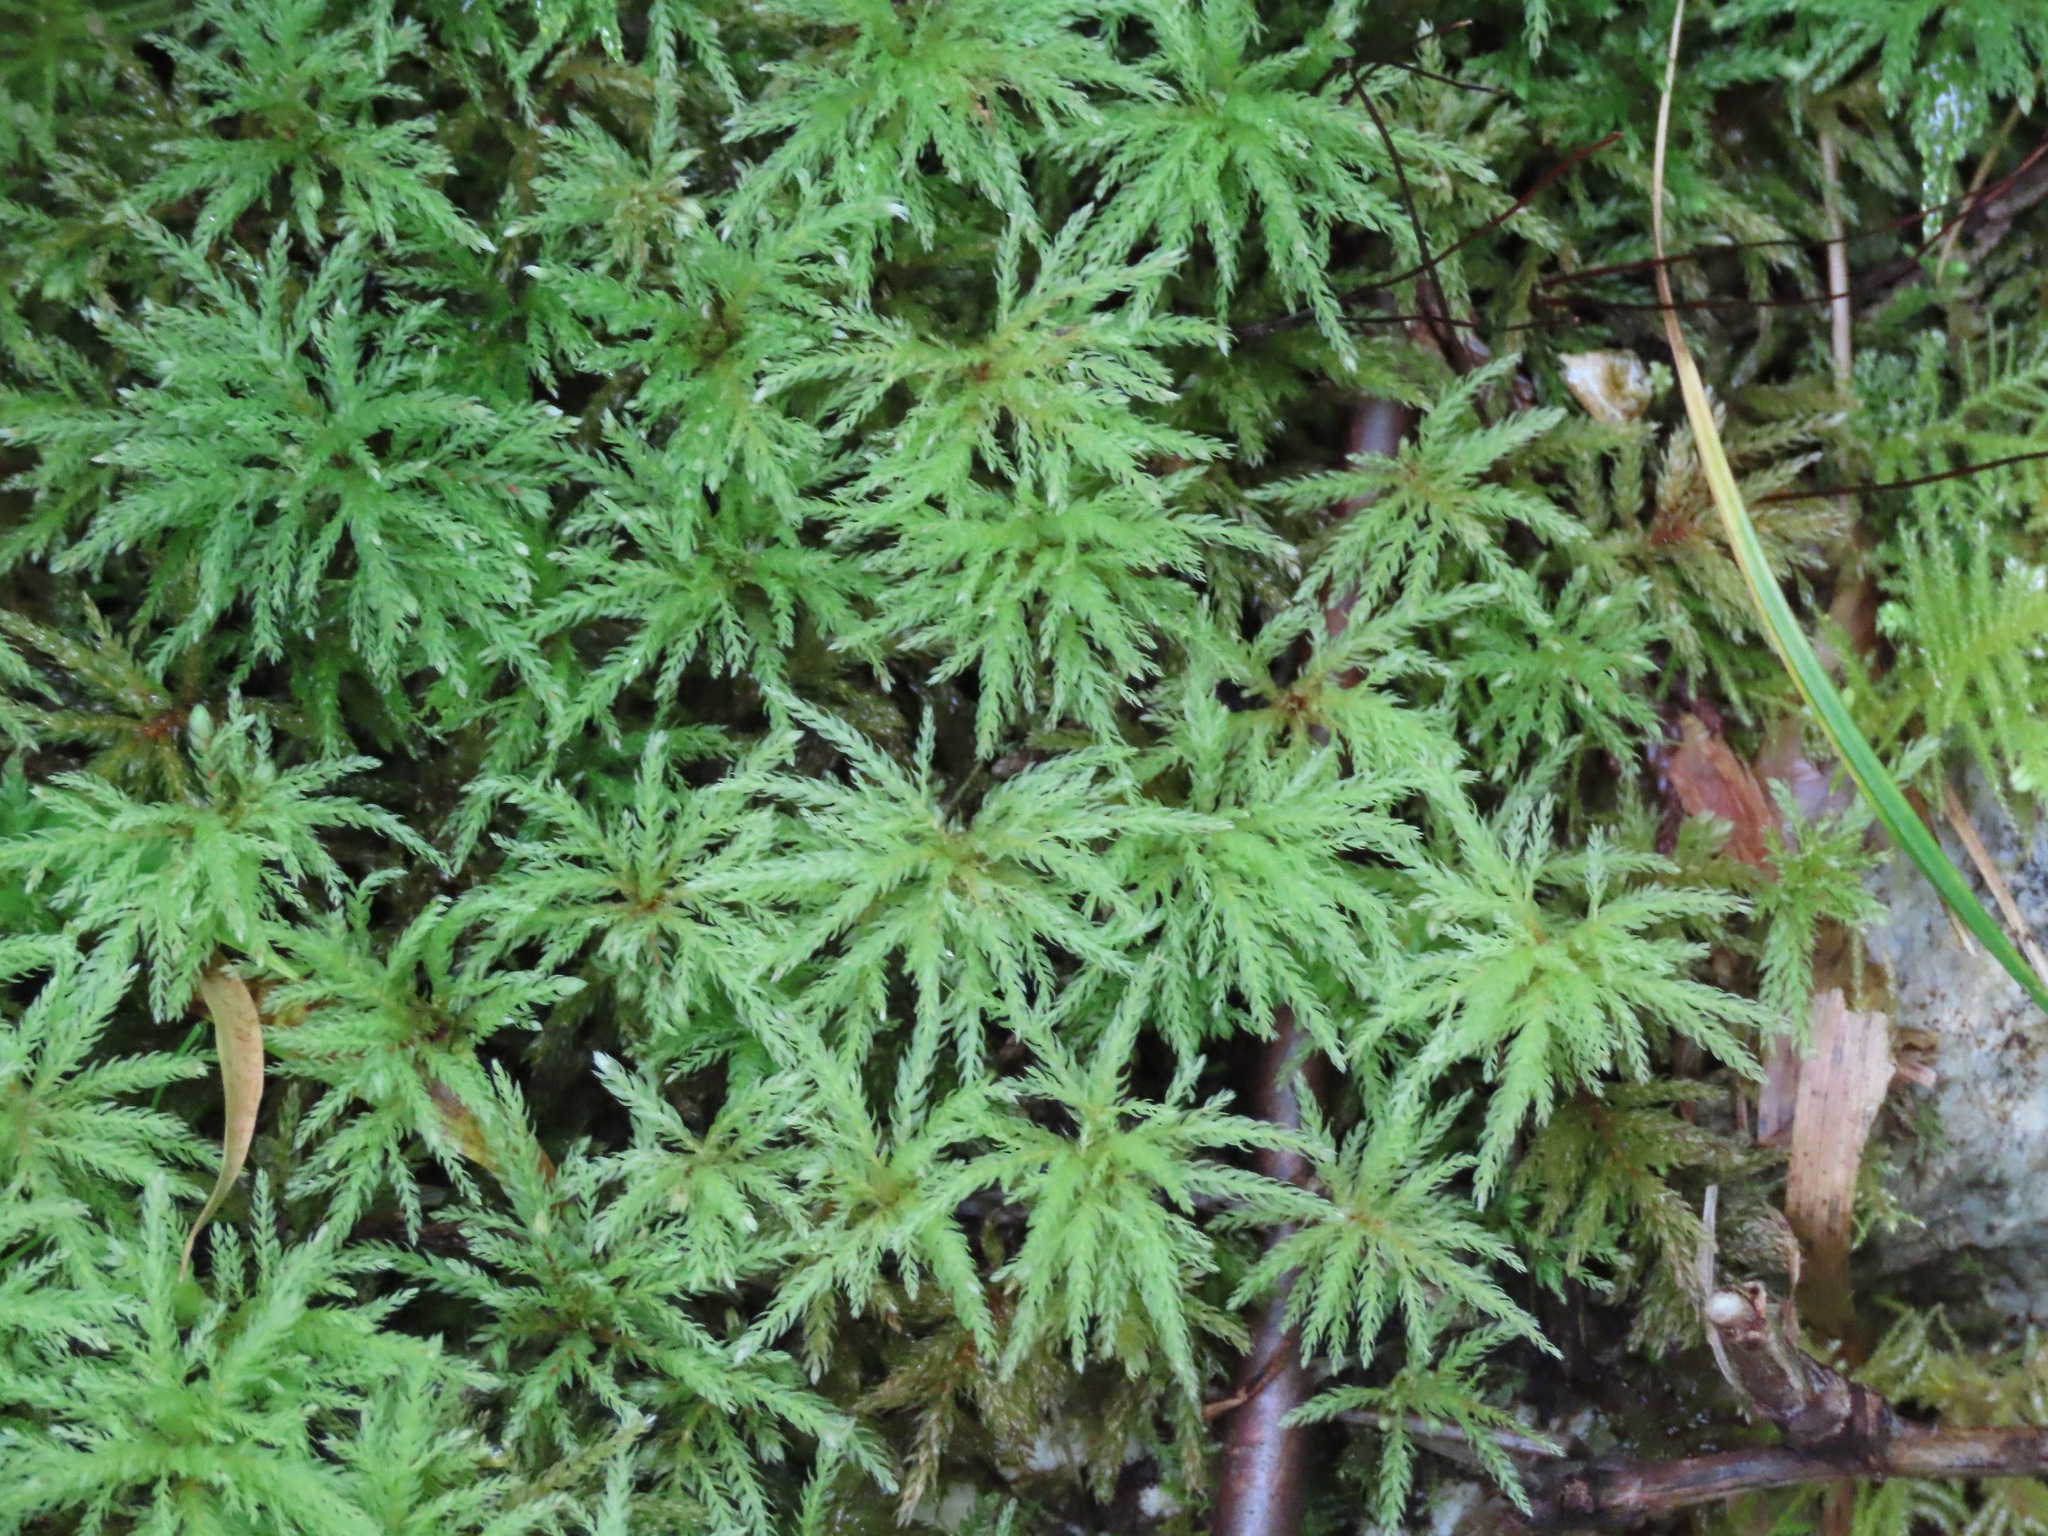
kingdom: Plantae
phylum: Bryophyta
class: Bryopsida
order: Bryales
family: Mniaceae
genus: Leucolepis
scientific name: Leucolepis acanthoneura
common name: Leucolepis umbrella moss
